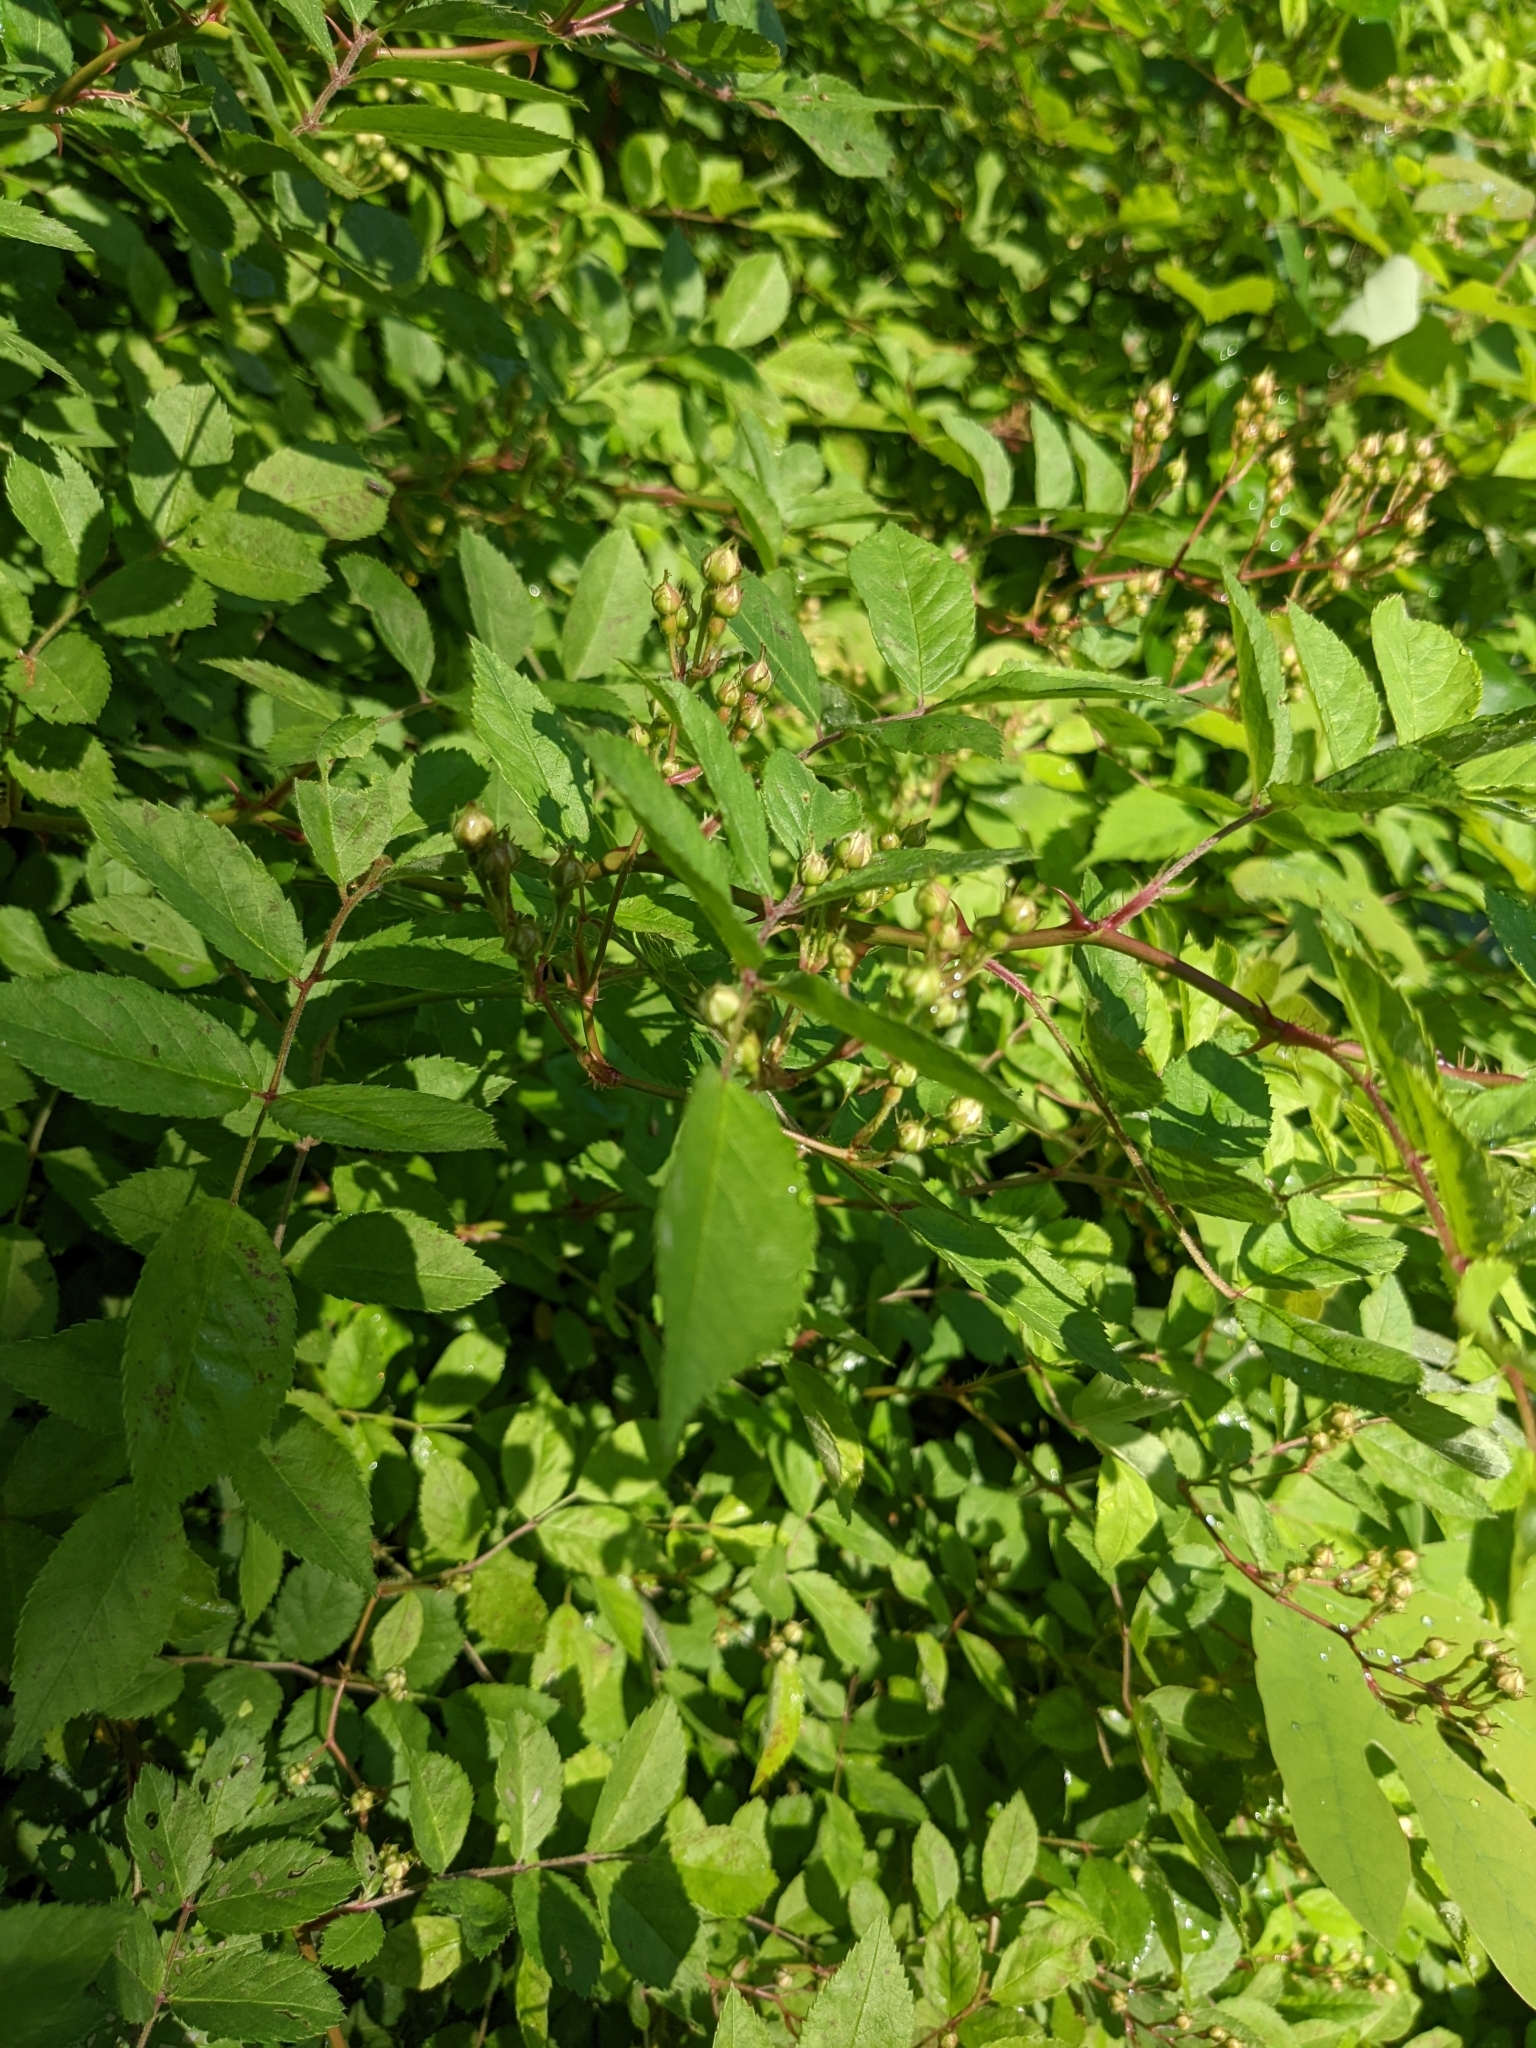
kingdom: Plantae
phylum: Tracheophyta
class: Magnoliopsida
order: Rosales
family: Rosaceae
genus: Rosa
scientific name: Rosa multiflora
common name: Multiflora rose
